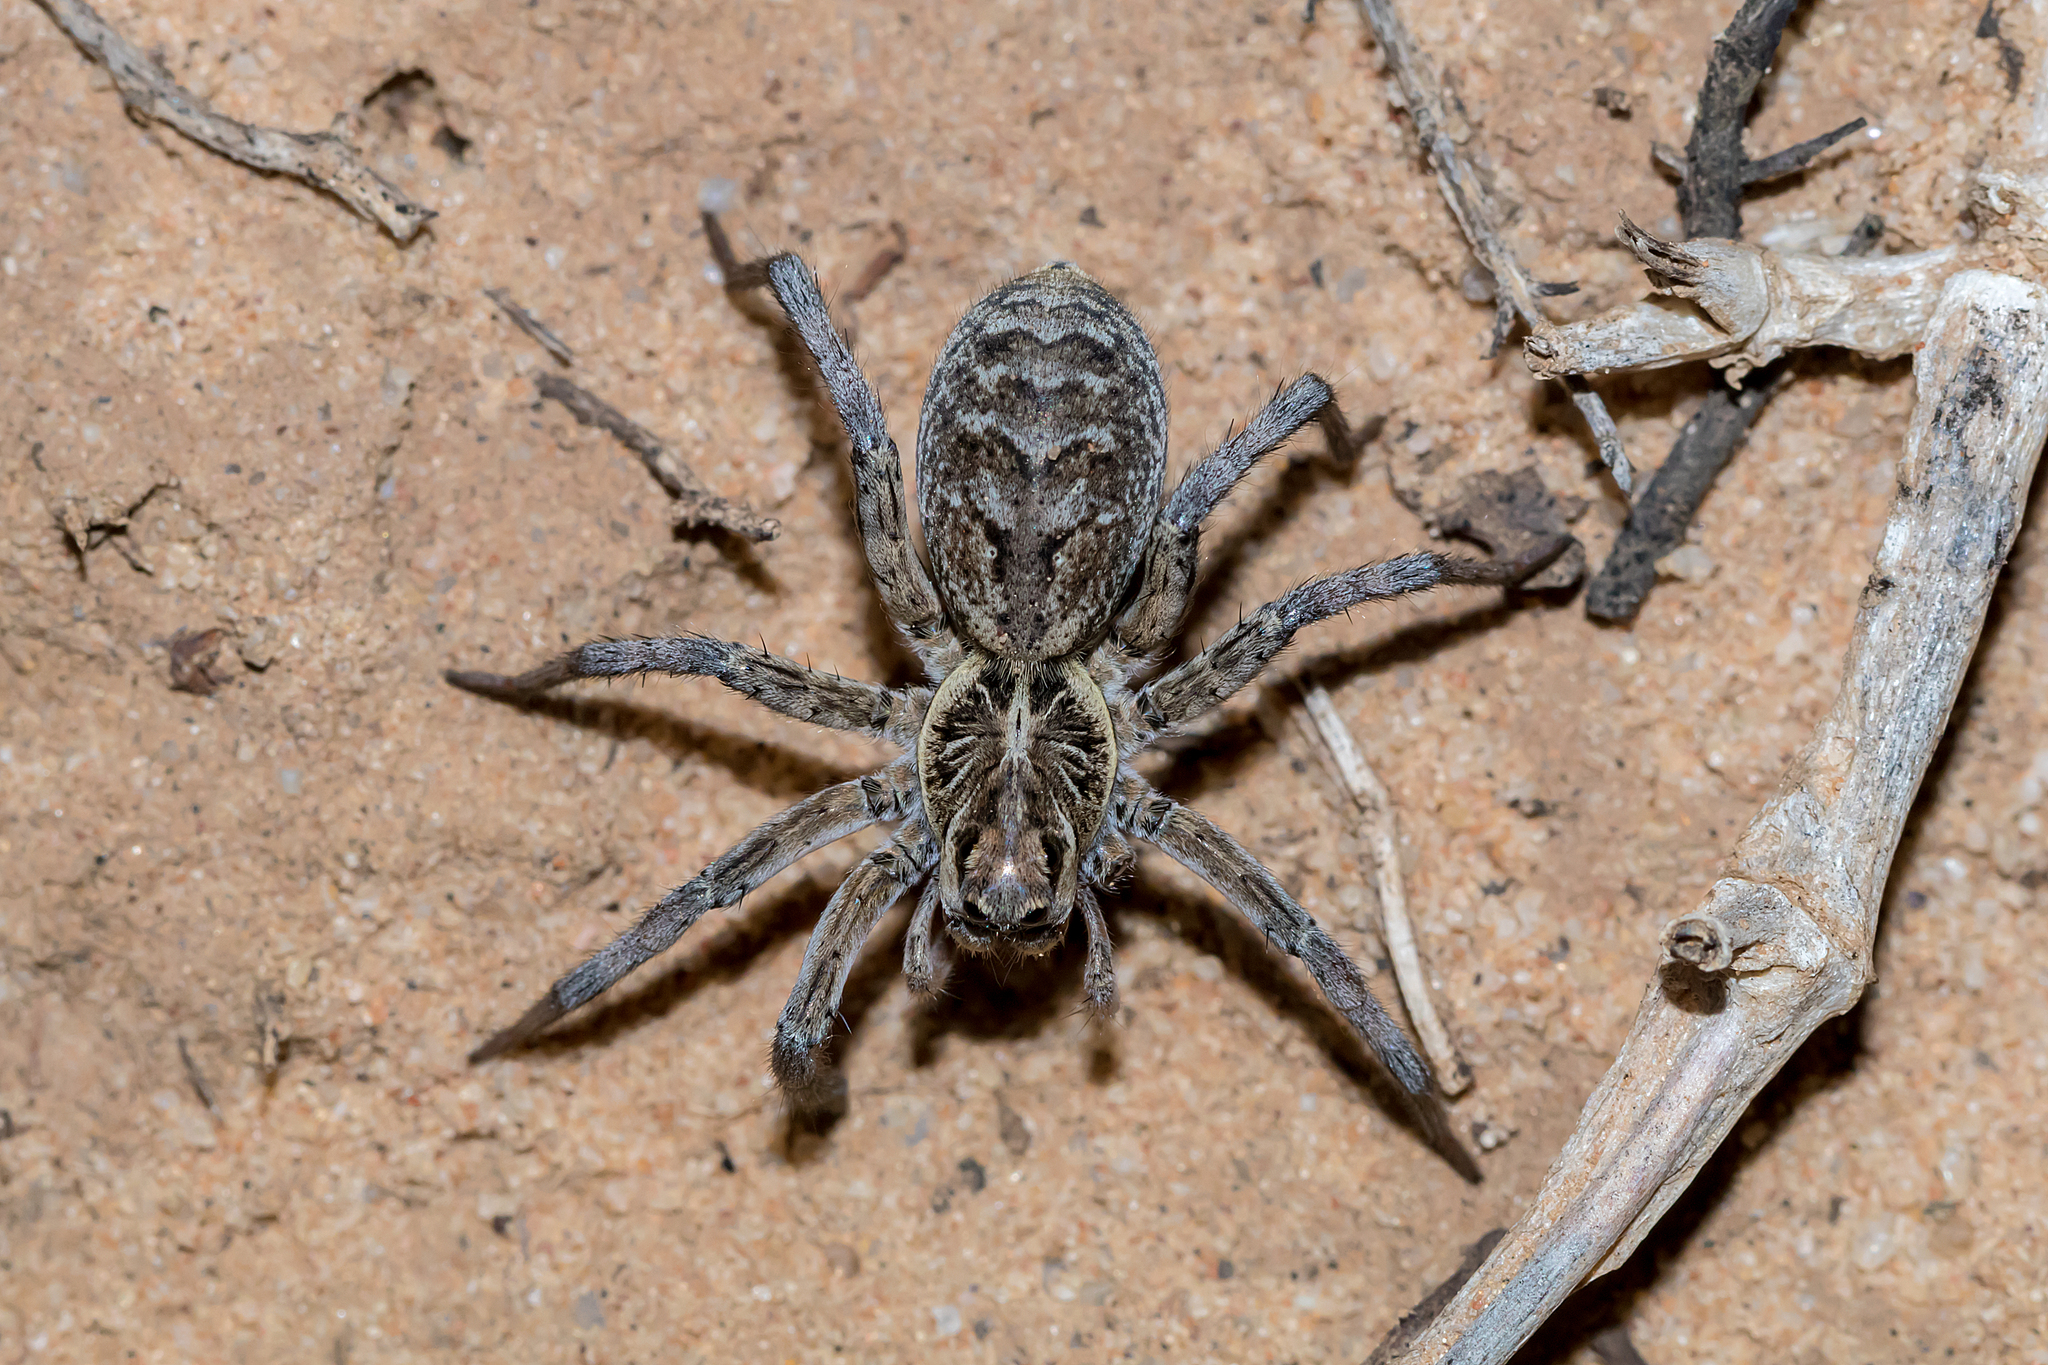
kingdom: Animalia
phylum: Arthropoda
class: Arachnida
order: Araneae
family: Lycosidae
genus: Tasmanicosa
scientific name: Tasmanicosa
